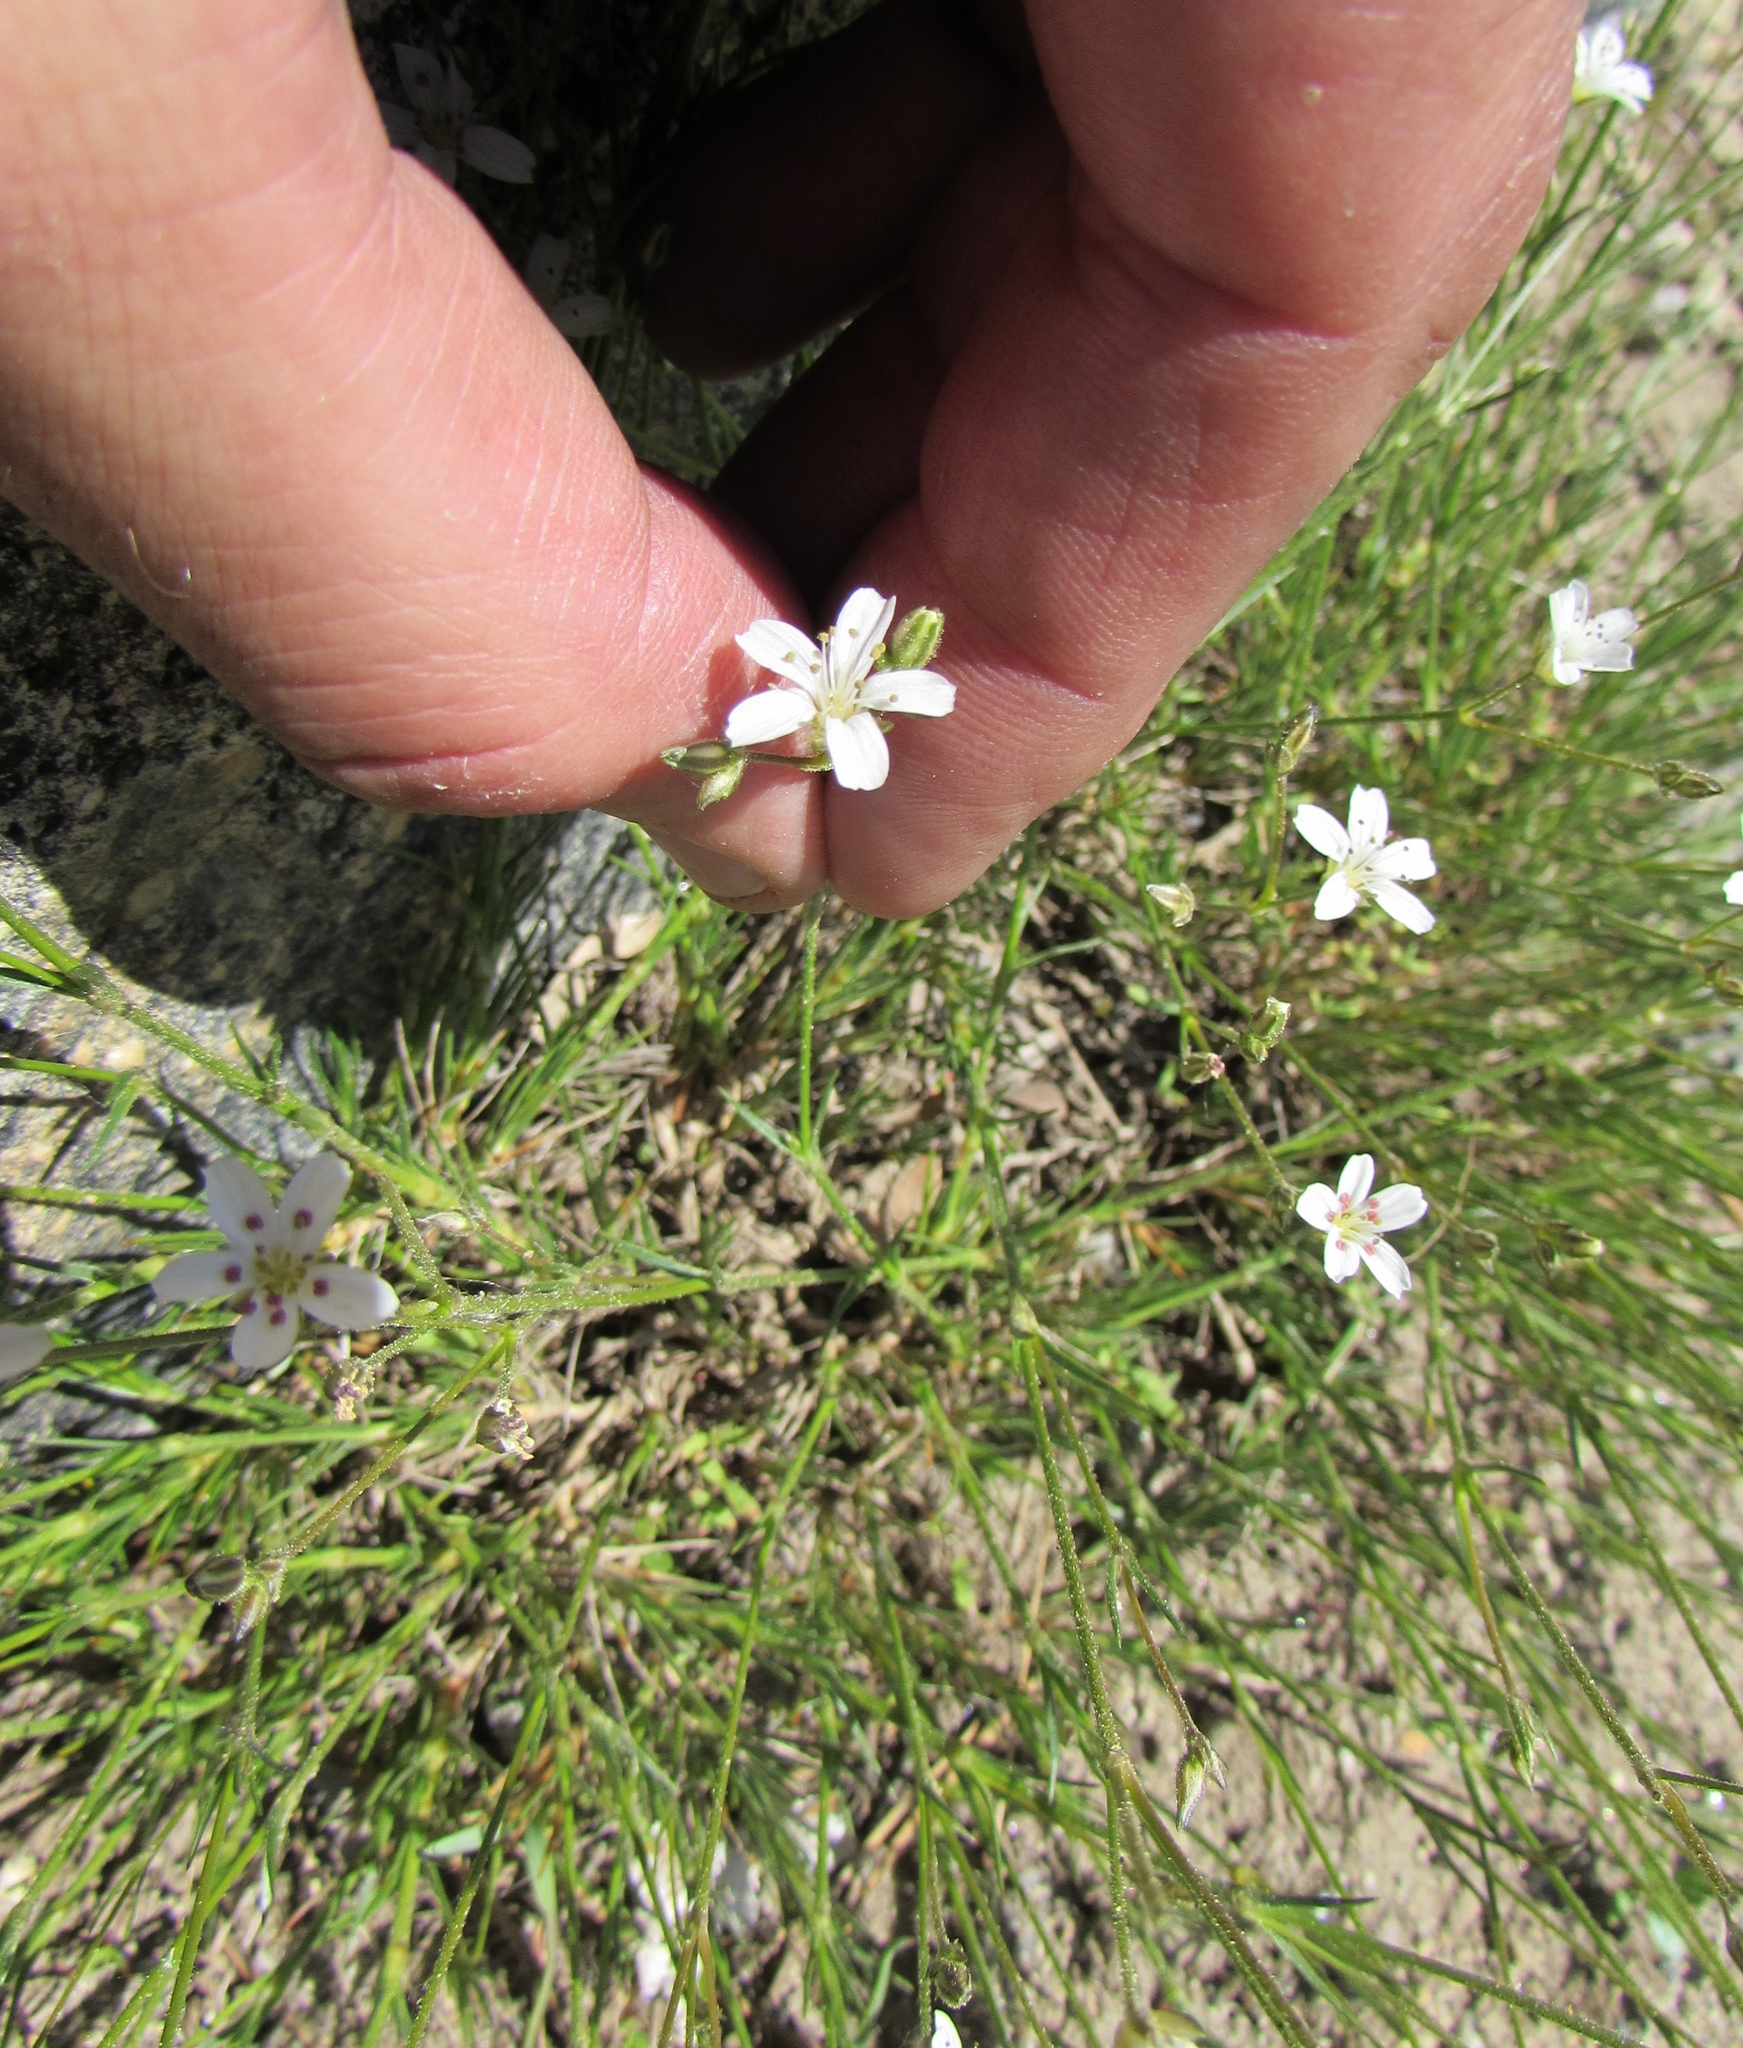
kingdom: Plantae
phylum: Tracheophyta
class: Magnoliopsida
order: Caryophyllales
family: Caryophyllaceae
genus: Eremogone
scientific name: Eremogone kingii
